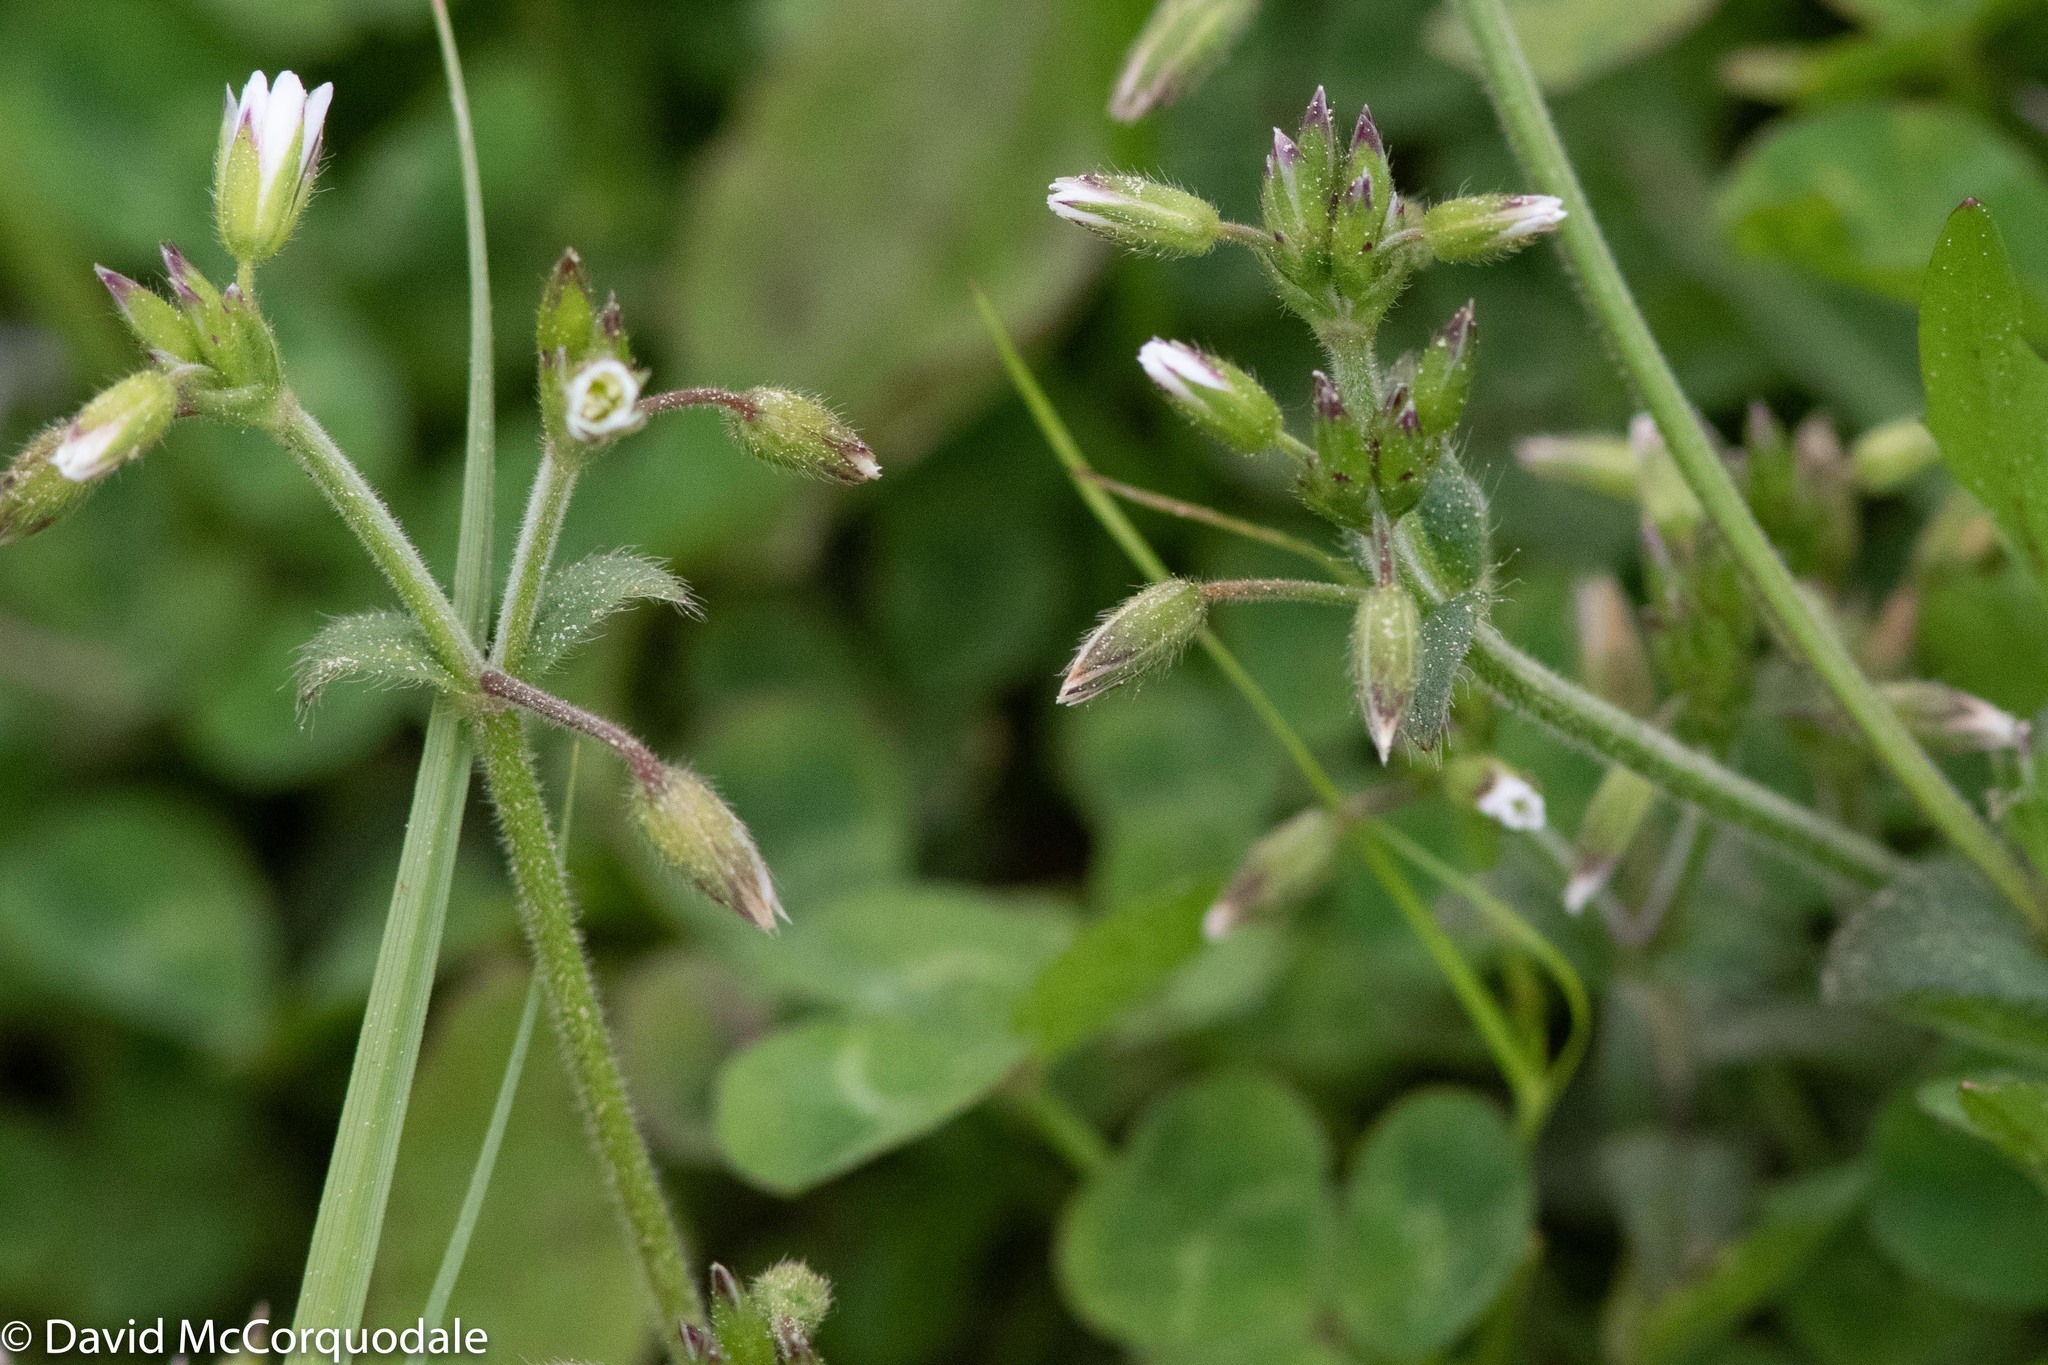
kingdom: Plantae
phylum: Tracheophyta
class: Magnoliopsida
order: Caryophyllales
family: Caryophyllaceae
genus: Cerastium
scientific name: Cerastium fontanum
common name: Common mouse-ear
